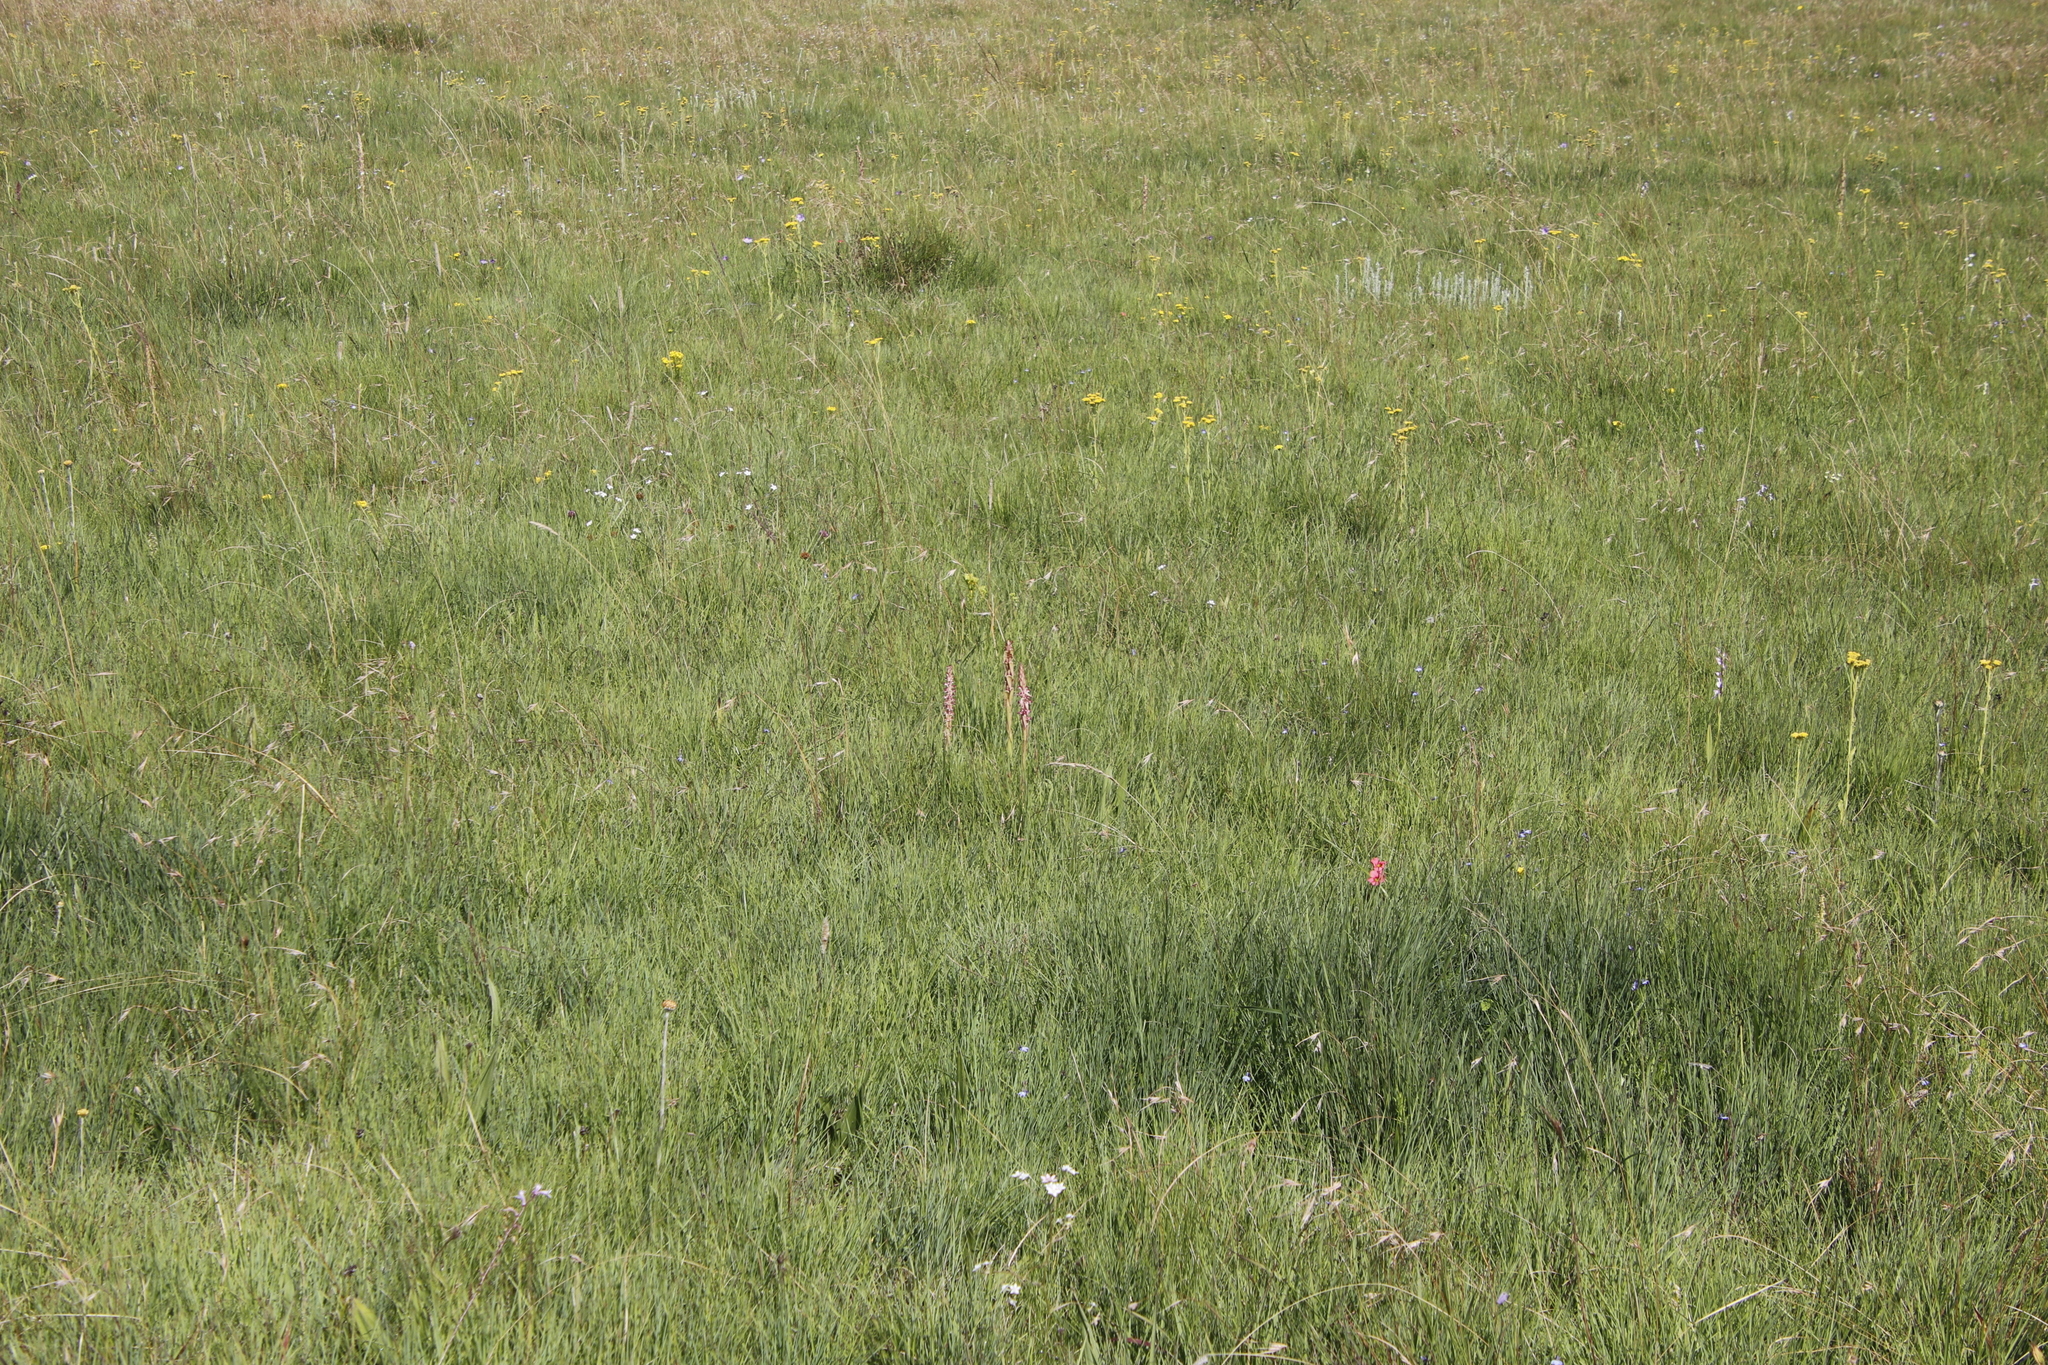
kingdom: Plantae
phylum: Tracheophyta
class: Liliopsida
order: Asparagales
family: Orchidaceae
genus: Satyrium
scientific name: Satyrium longicauda
